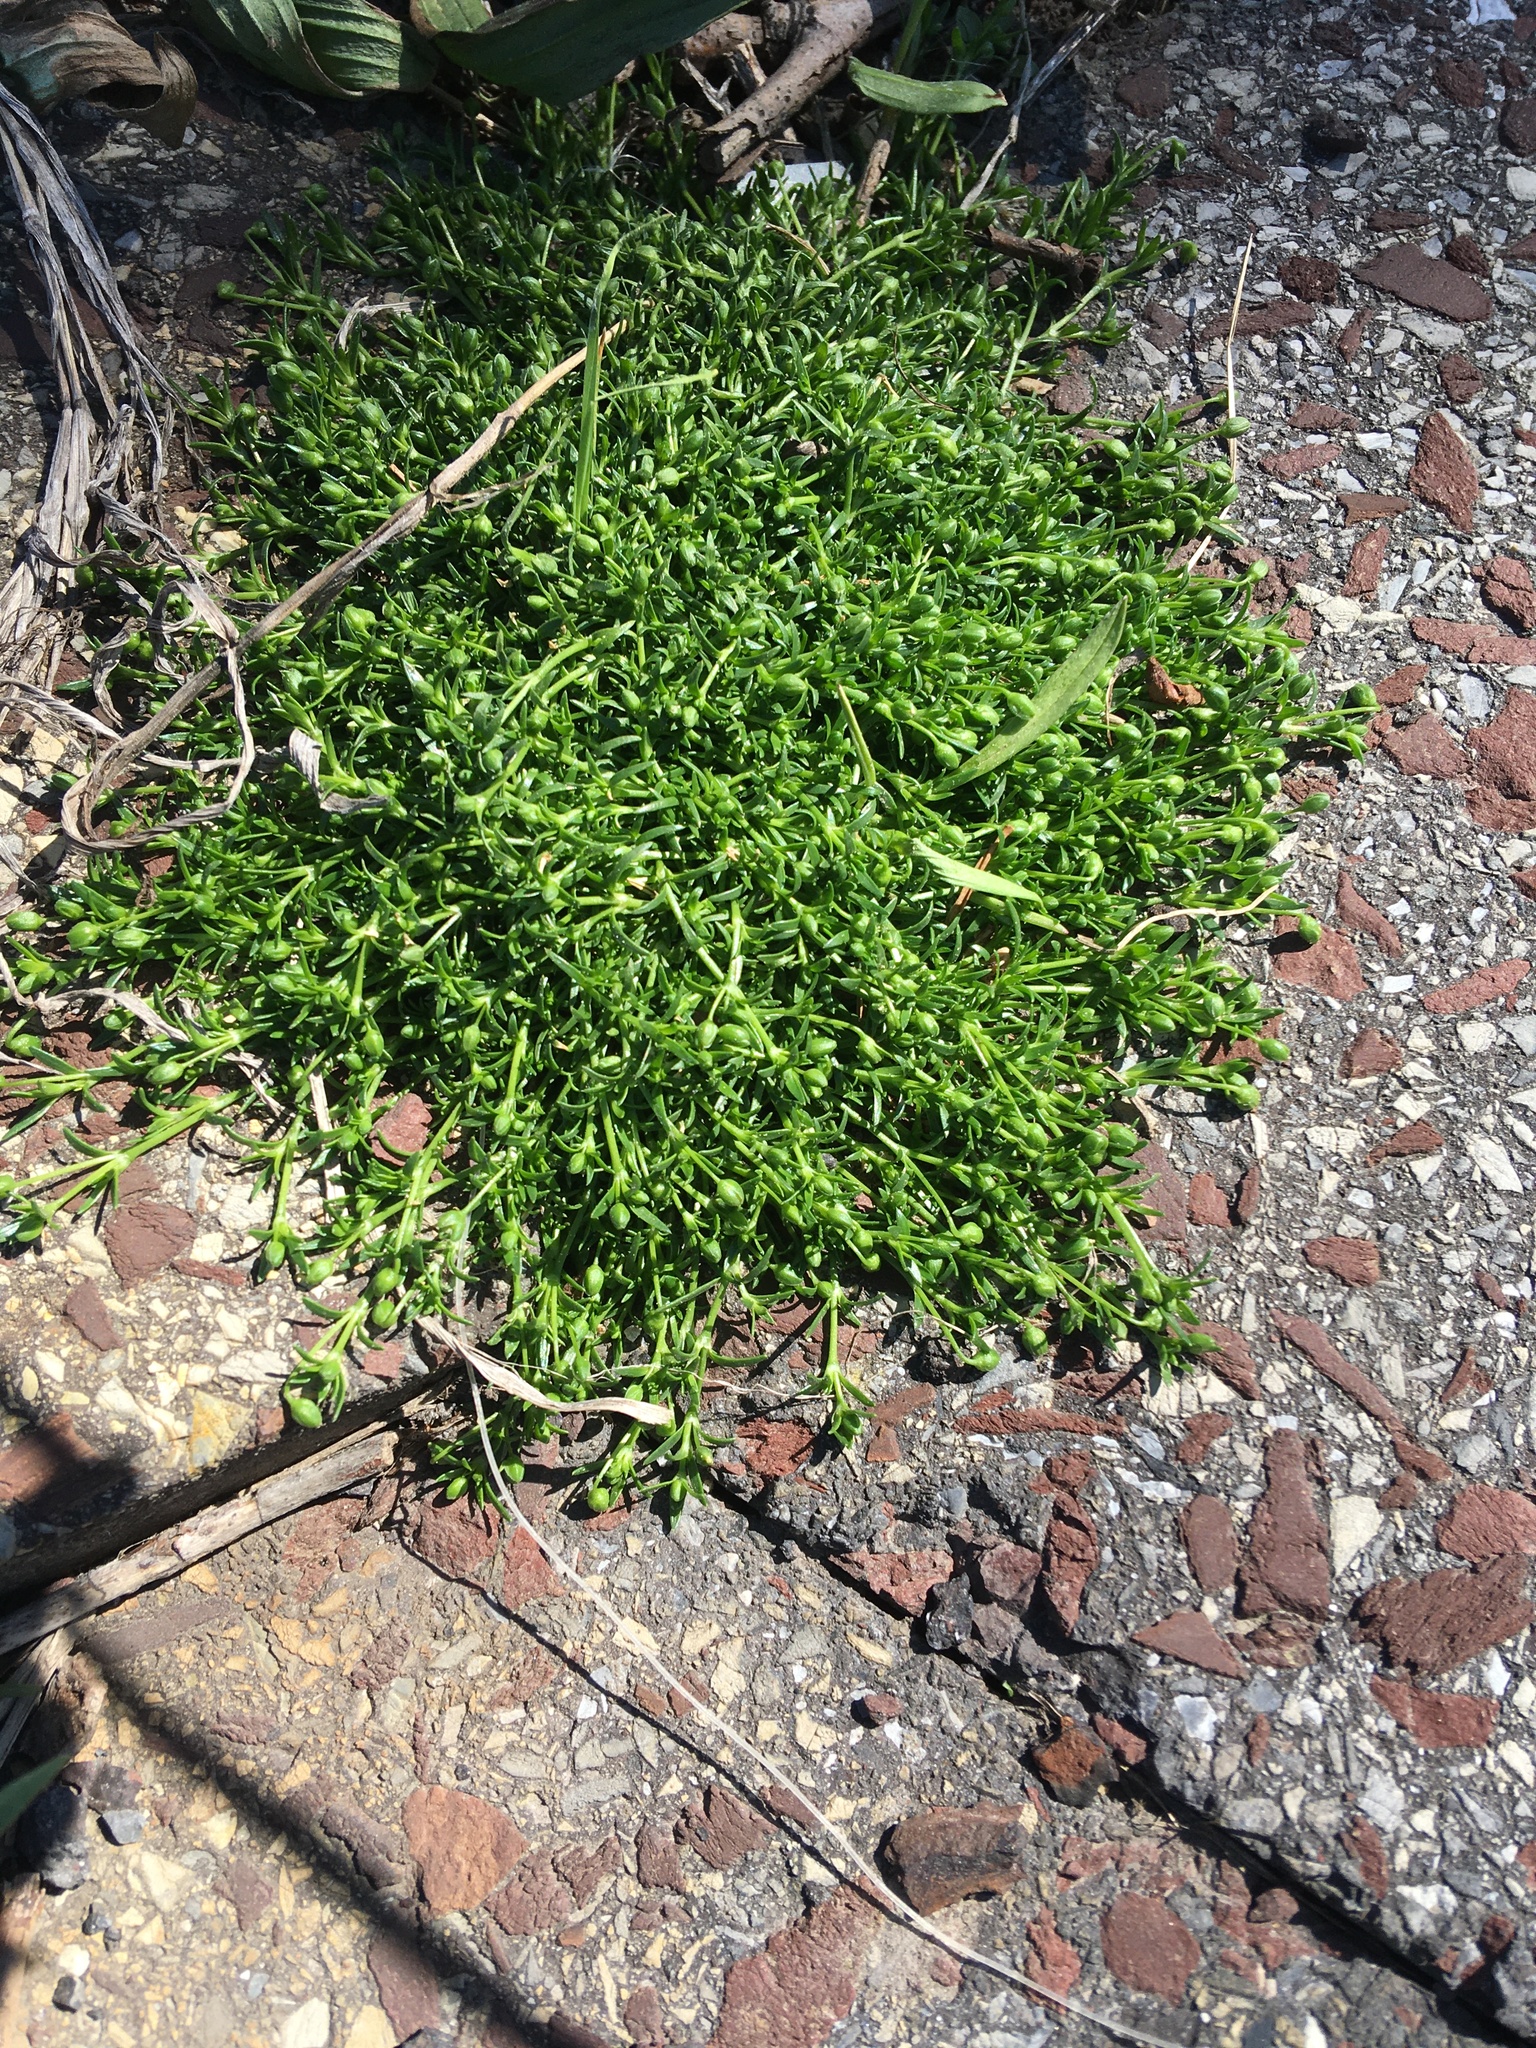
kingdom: Plantae
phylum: Tracheophyta
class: Magnoliopsida
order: Caryophyllales
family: Caryophyllaceae
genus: Sagina
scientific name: Sagina procumbens
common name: Procumbent pearlwort
